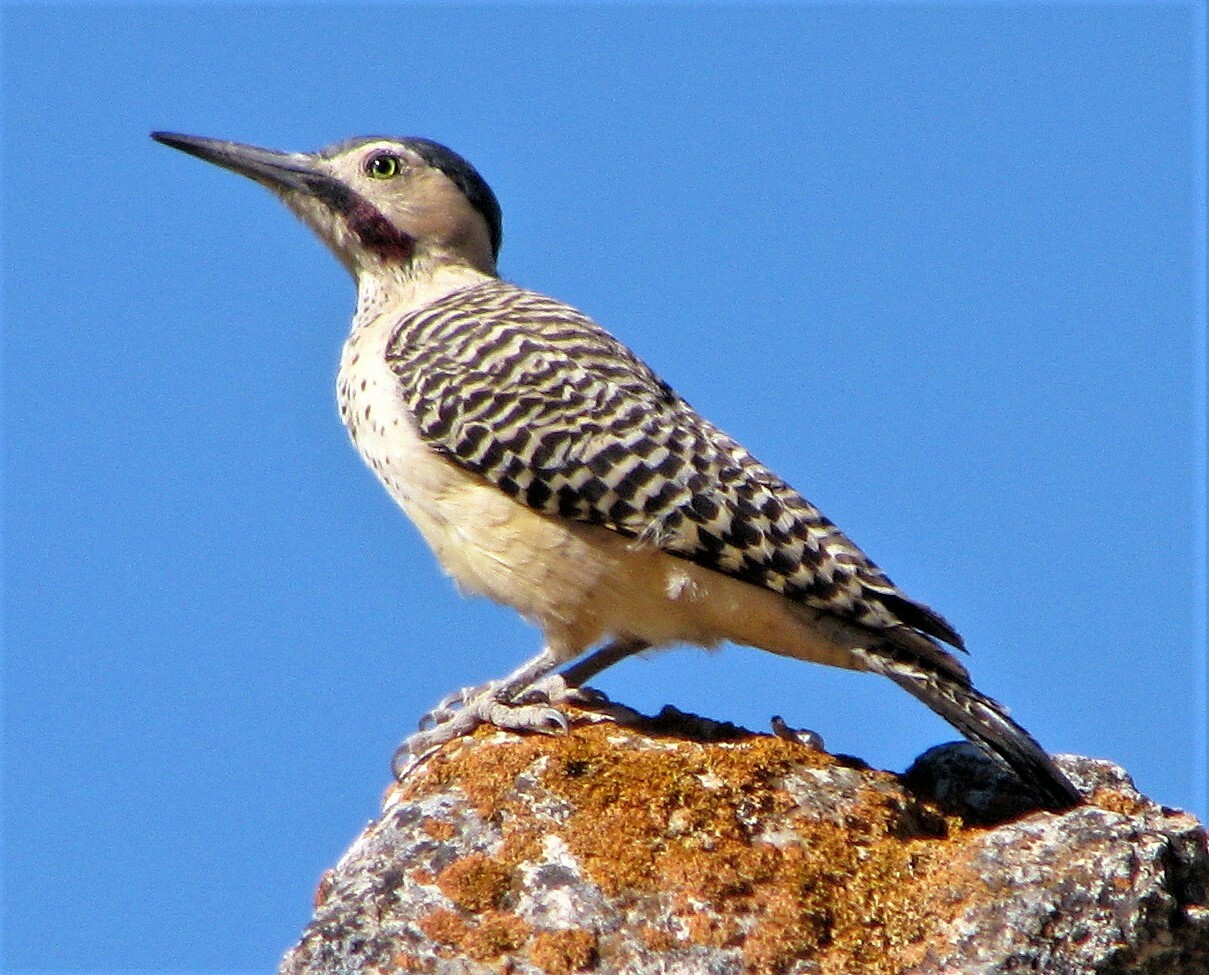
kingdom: Animalia
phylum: Chordata
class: Aves
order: Piciformes
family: Picidae
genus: Colaptes
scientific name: Colaptes rupicola
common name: Andean flicker
